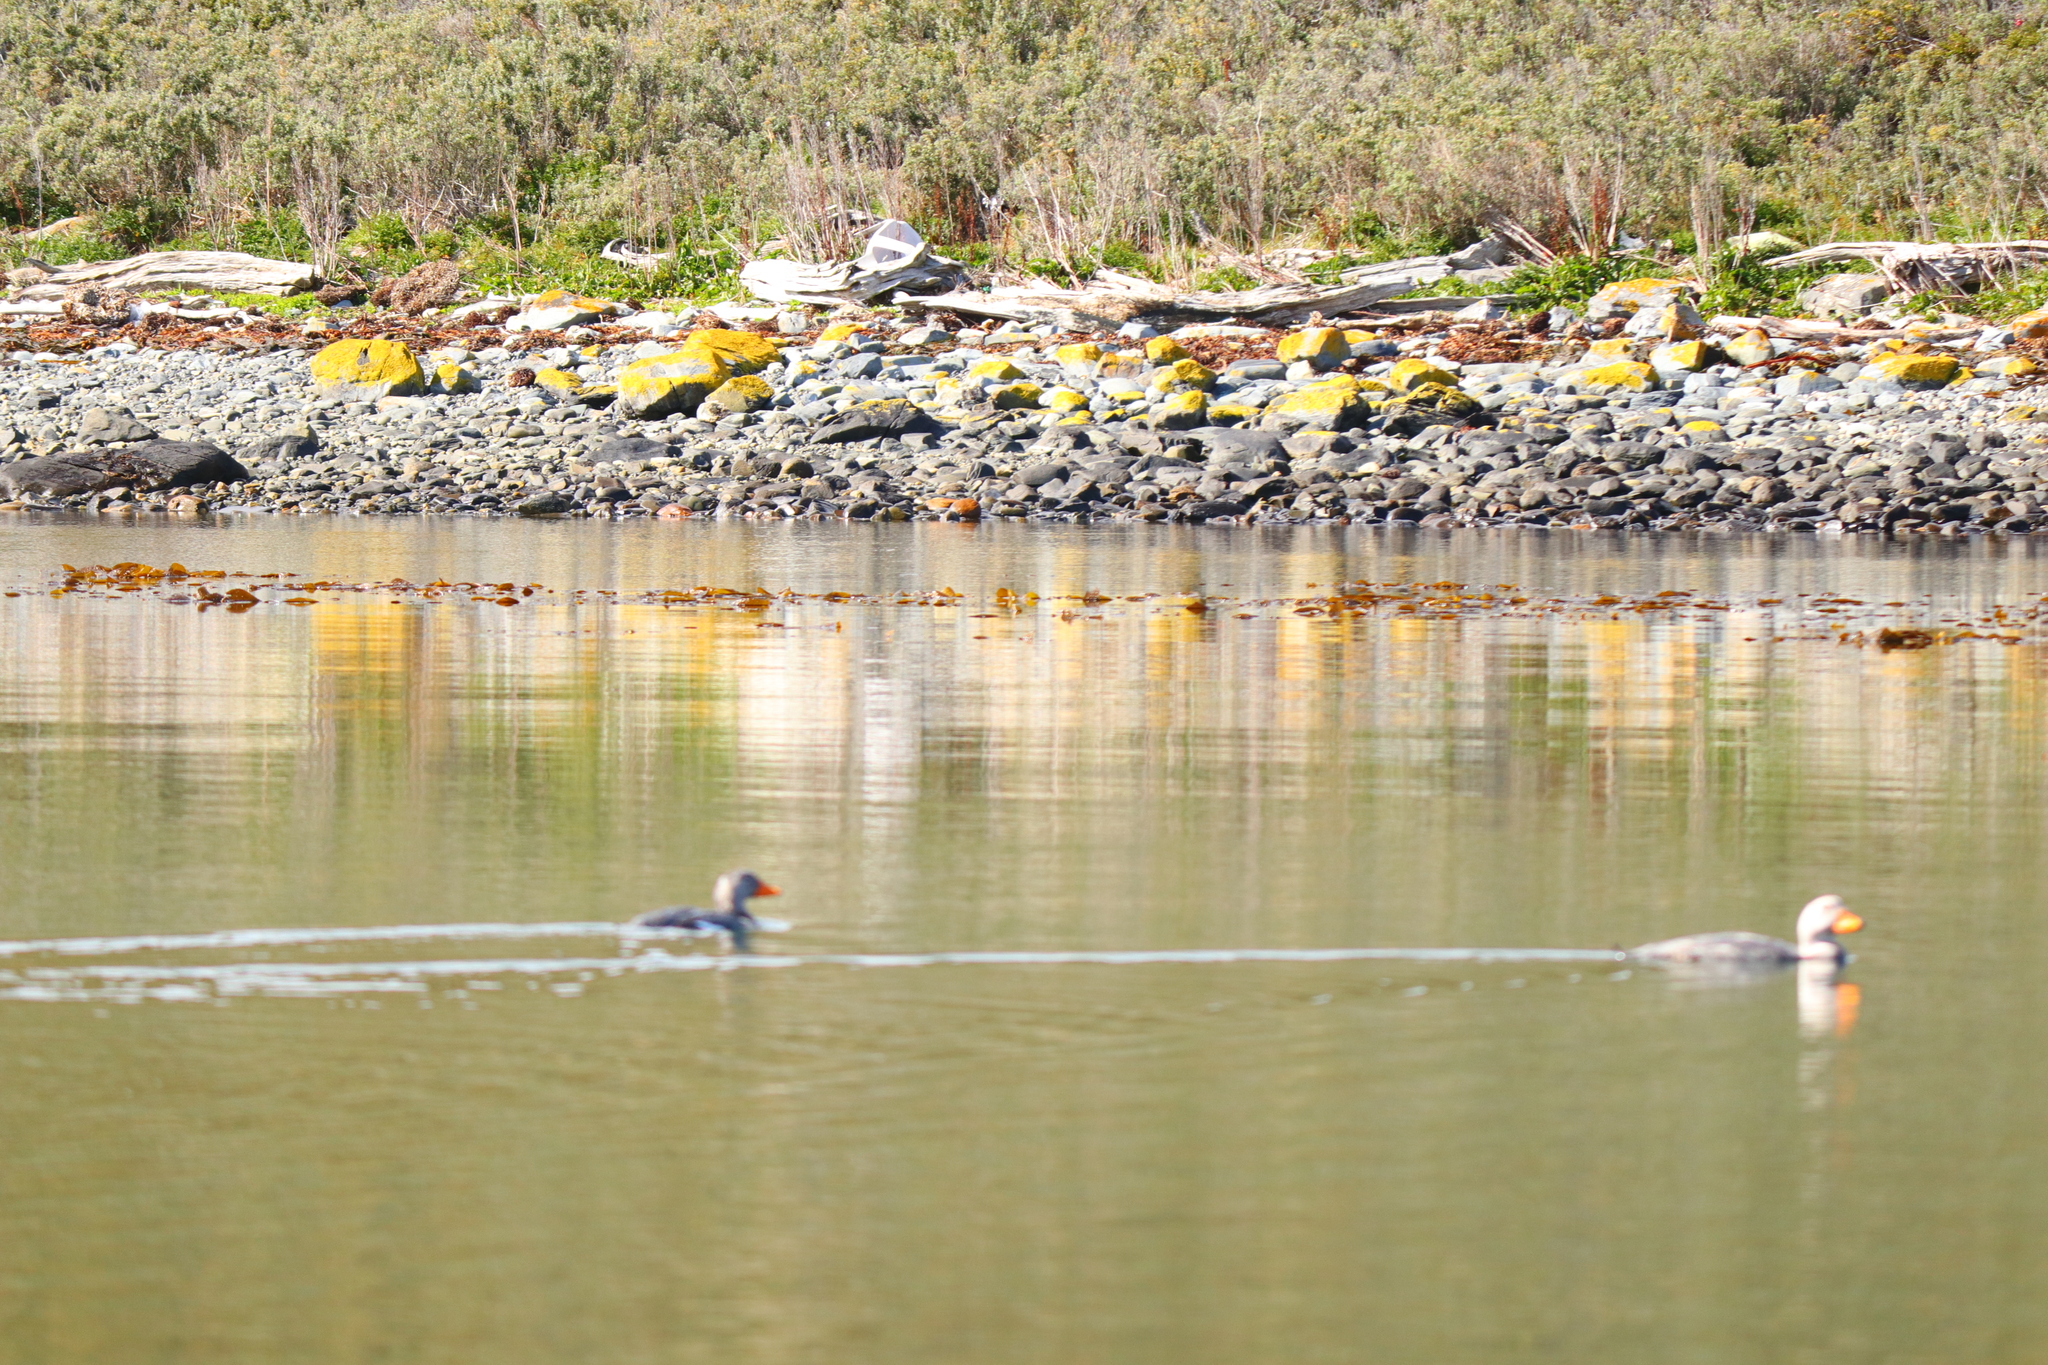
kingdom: Animalia
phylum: Chordata
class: Aves
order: Anseriformes
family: Anatidae
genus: Tachyeres
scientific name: Tachyeres pteneres
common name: Fuegian steamer duck
